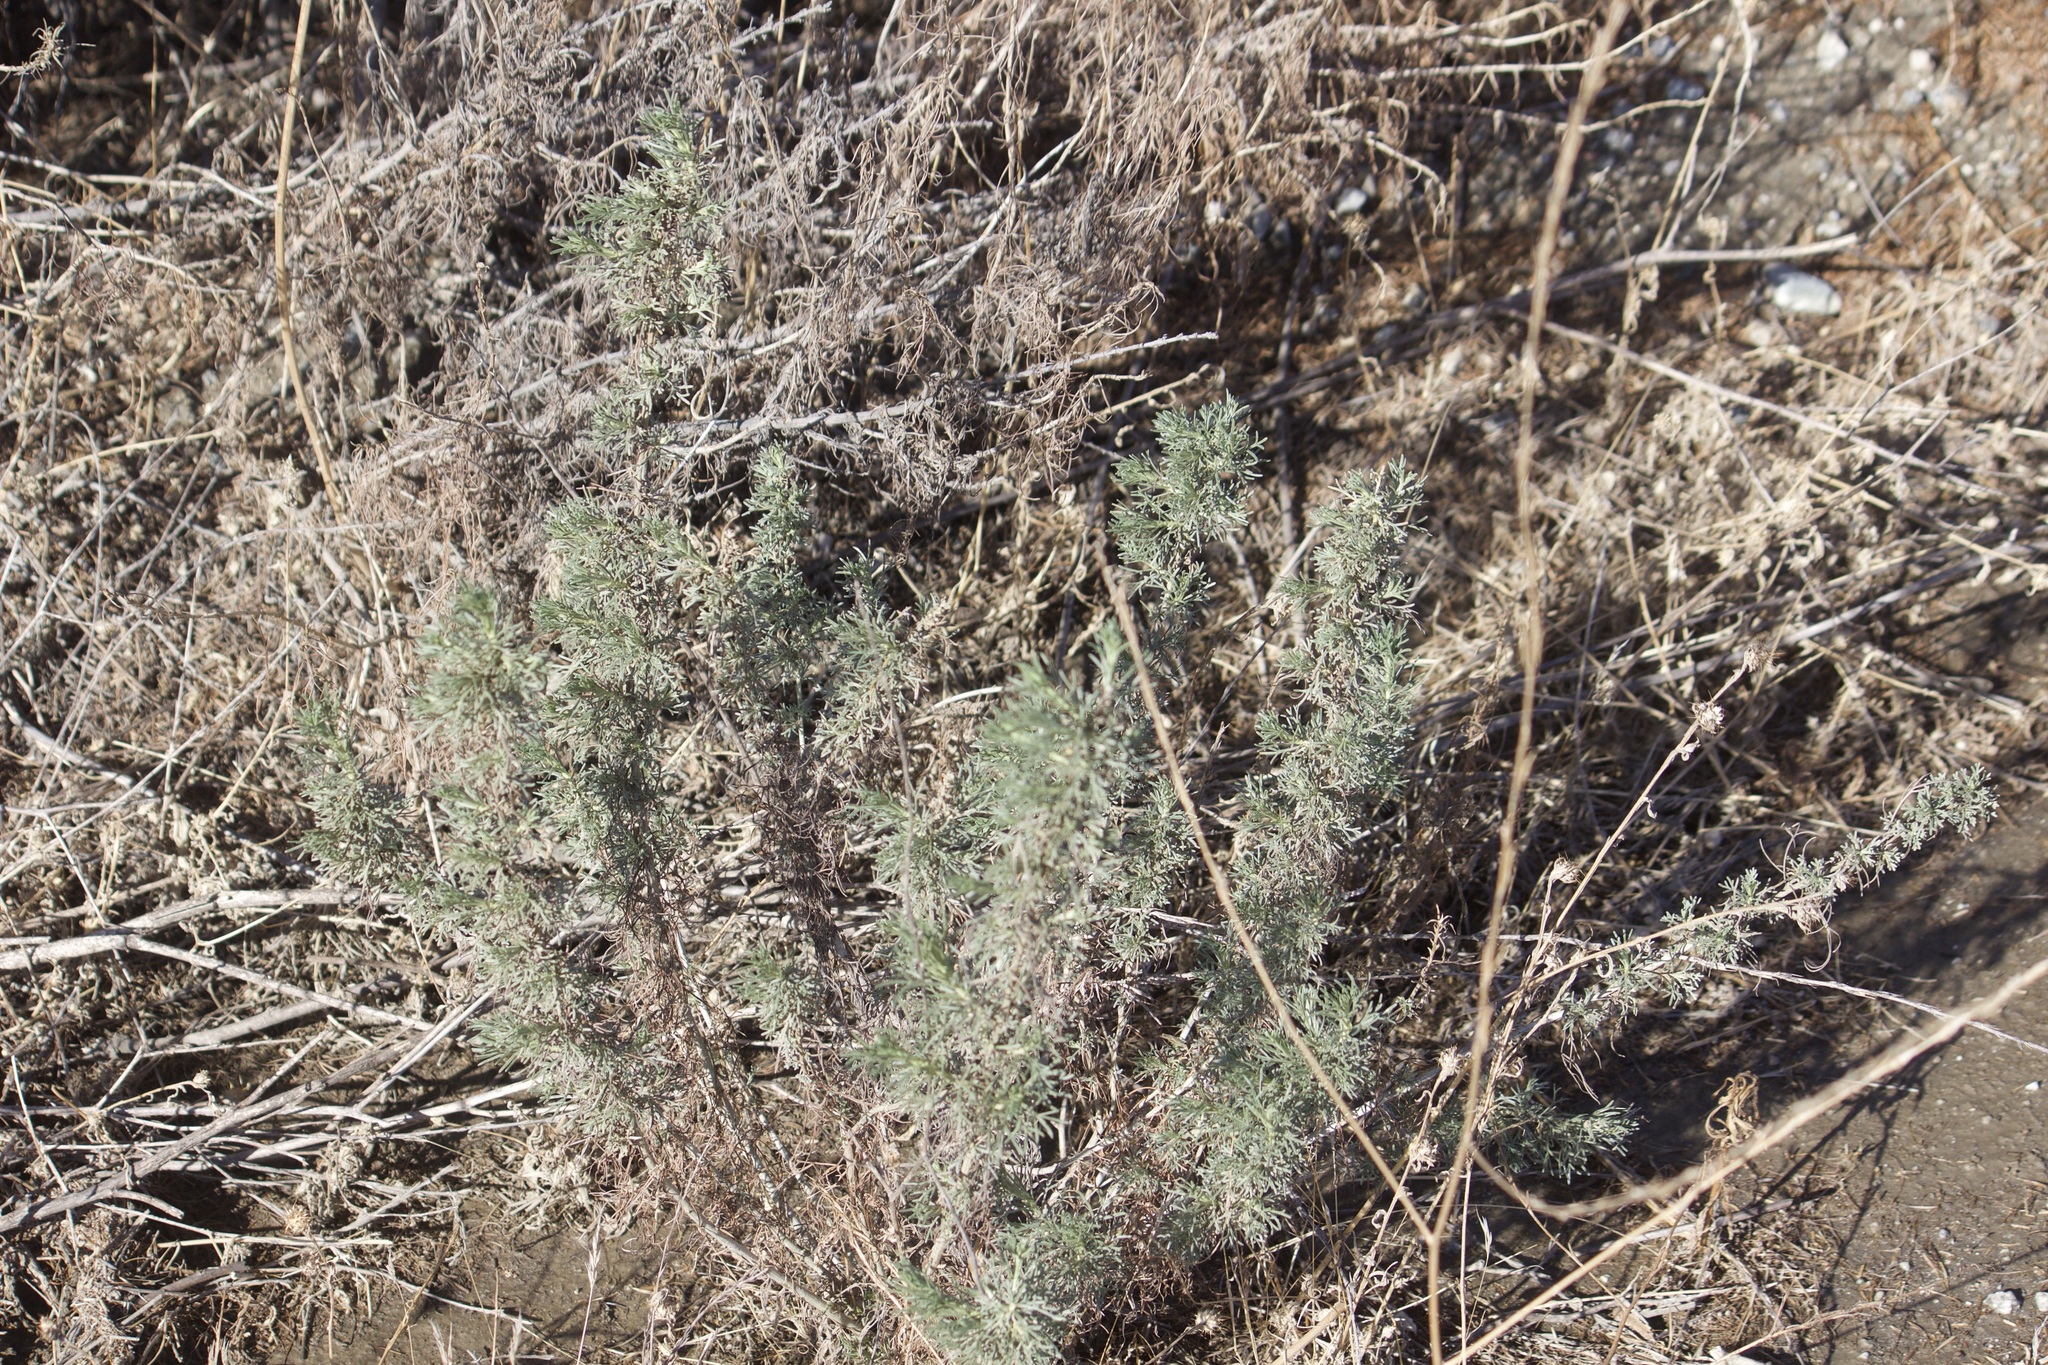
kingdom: Plantae
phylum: Tracheophyta
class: Magnoliopsida
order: Asterales
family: Asteraceae
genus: Artemisia
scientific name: Artemisia californica
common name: California sagebrush
